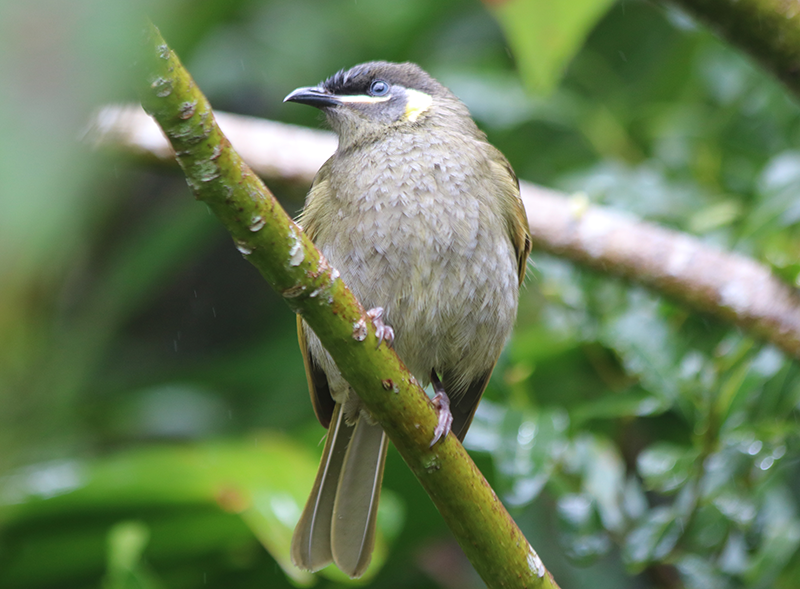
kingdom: Animalia
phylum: Chordata
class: Aves
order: Passeriformes
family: Meliphagidae
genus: Meliphaga
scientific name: Meliphaga lewinii
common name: Lewin's honeyeater
